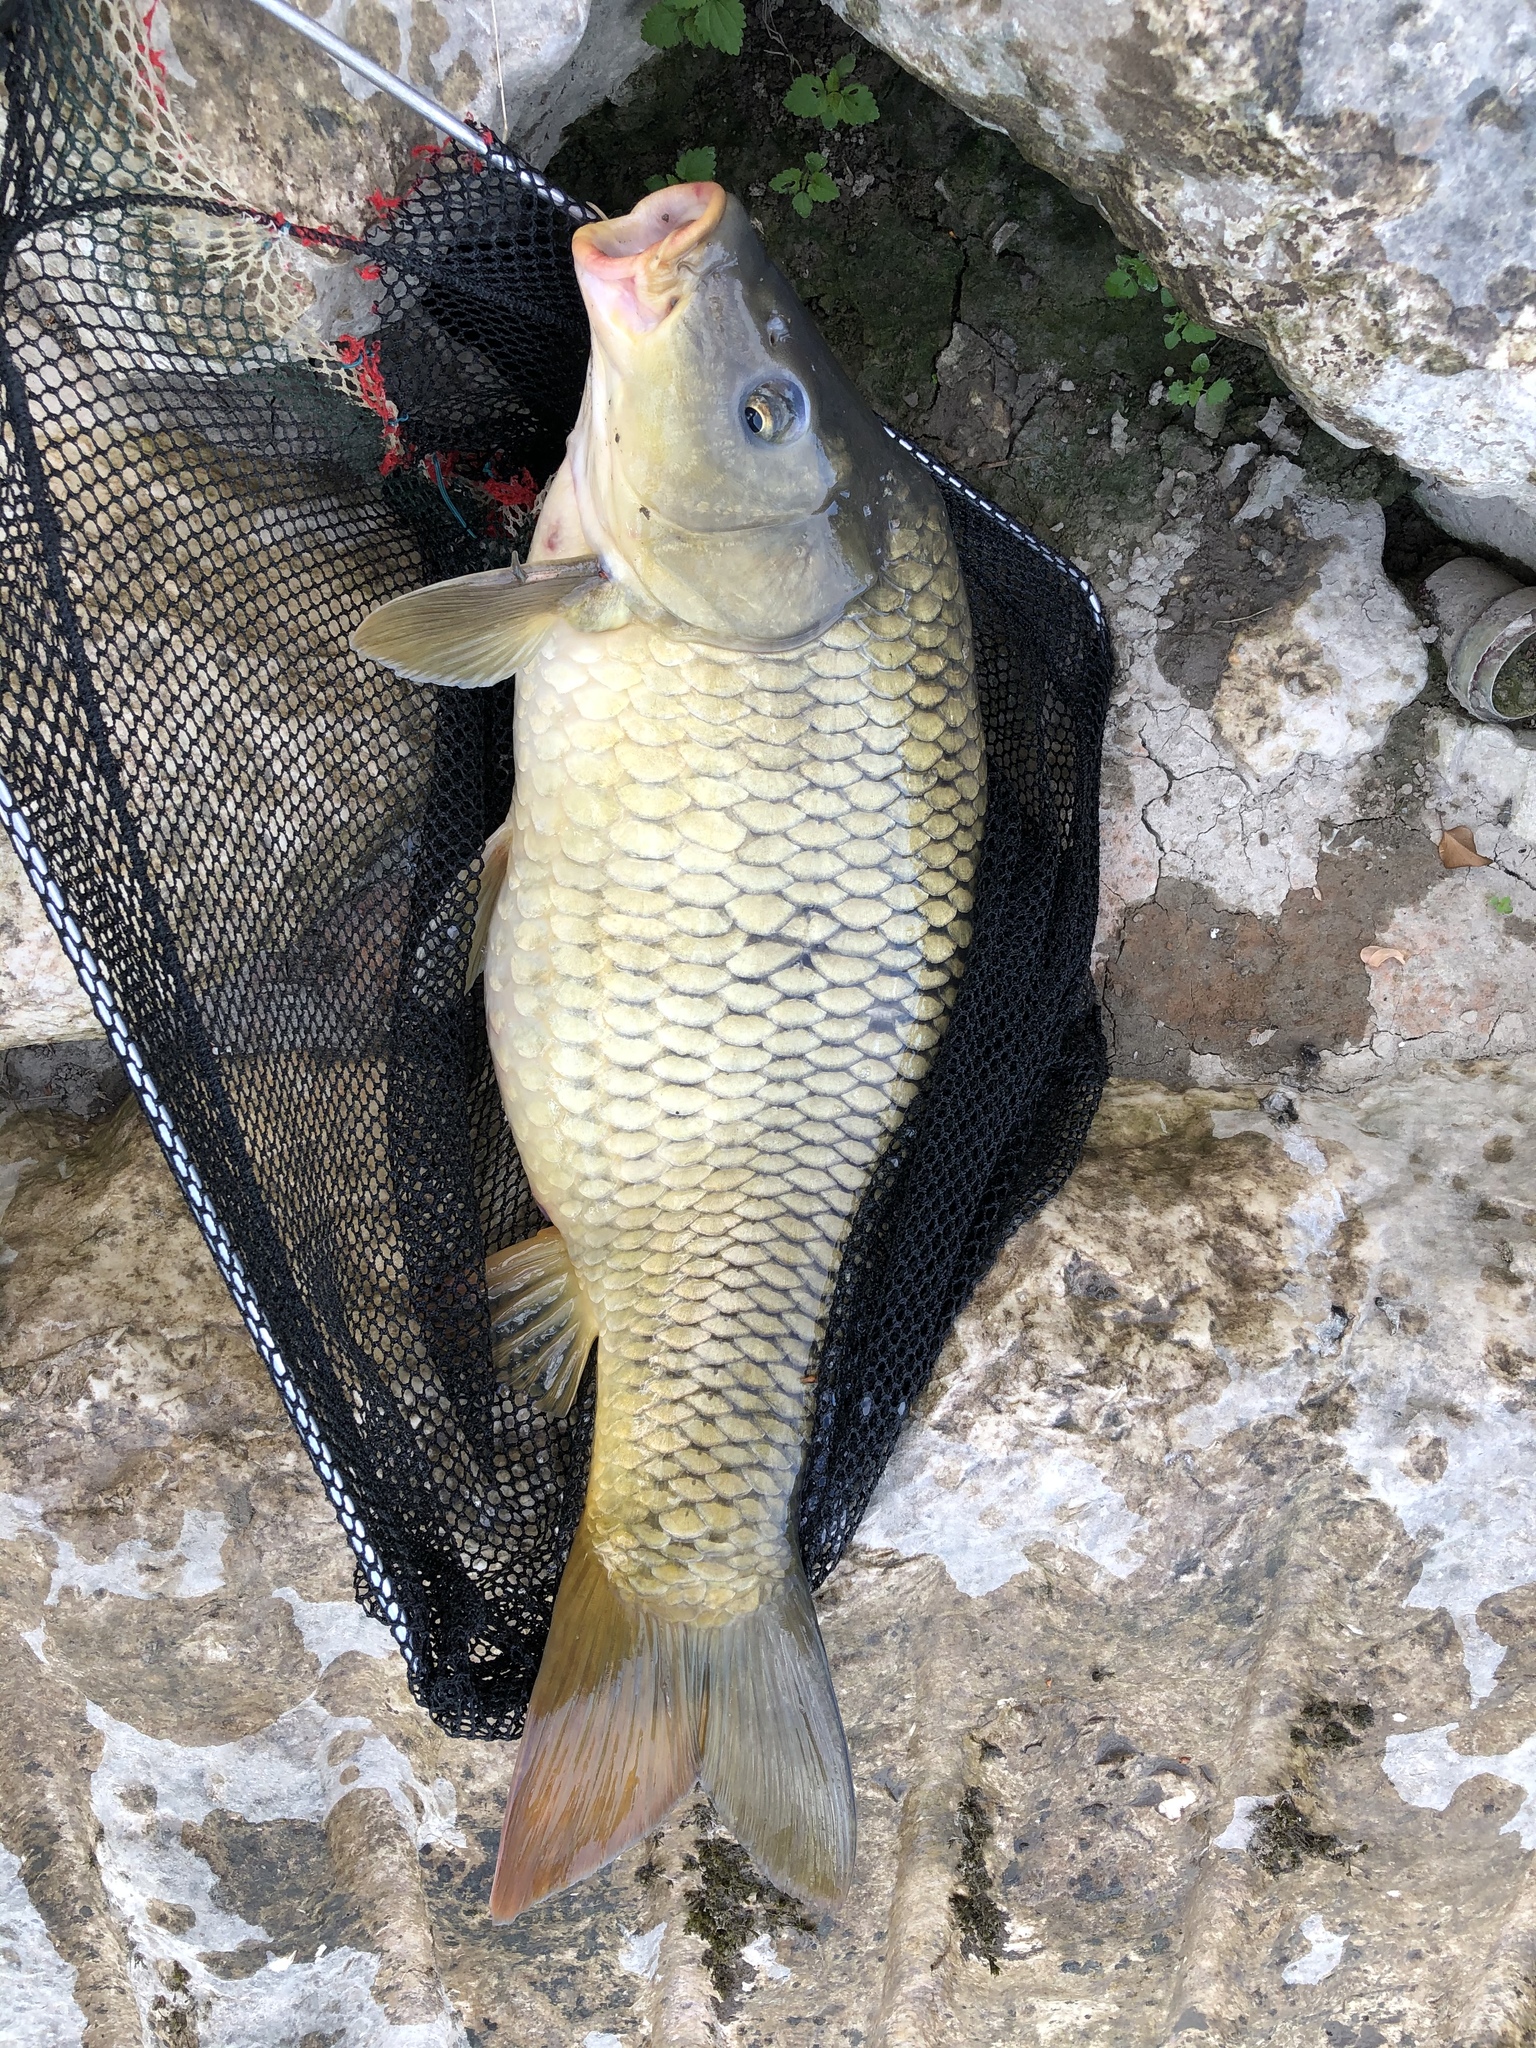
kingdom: Animalia
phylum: Chordata
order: Cypriniformes
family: Cyprinidae
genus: Cyprinus
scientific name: Cyprinus carpio
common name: Common carp
